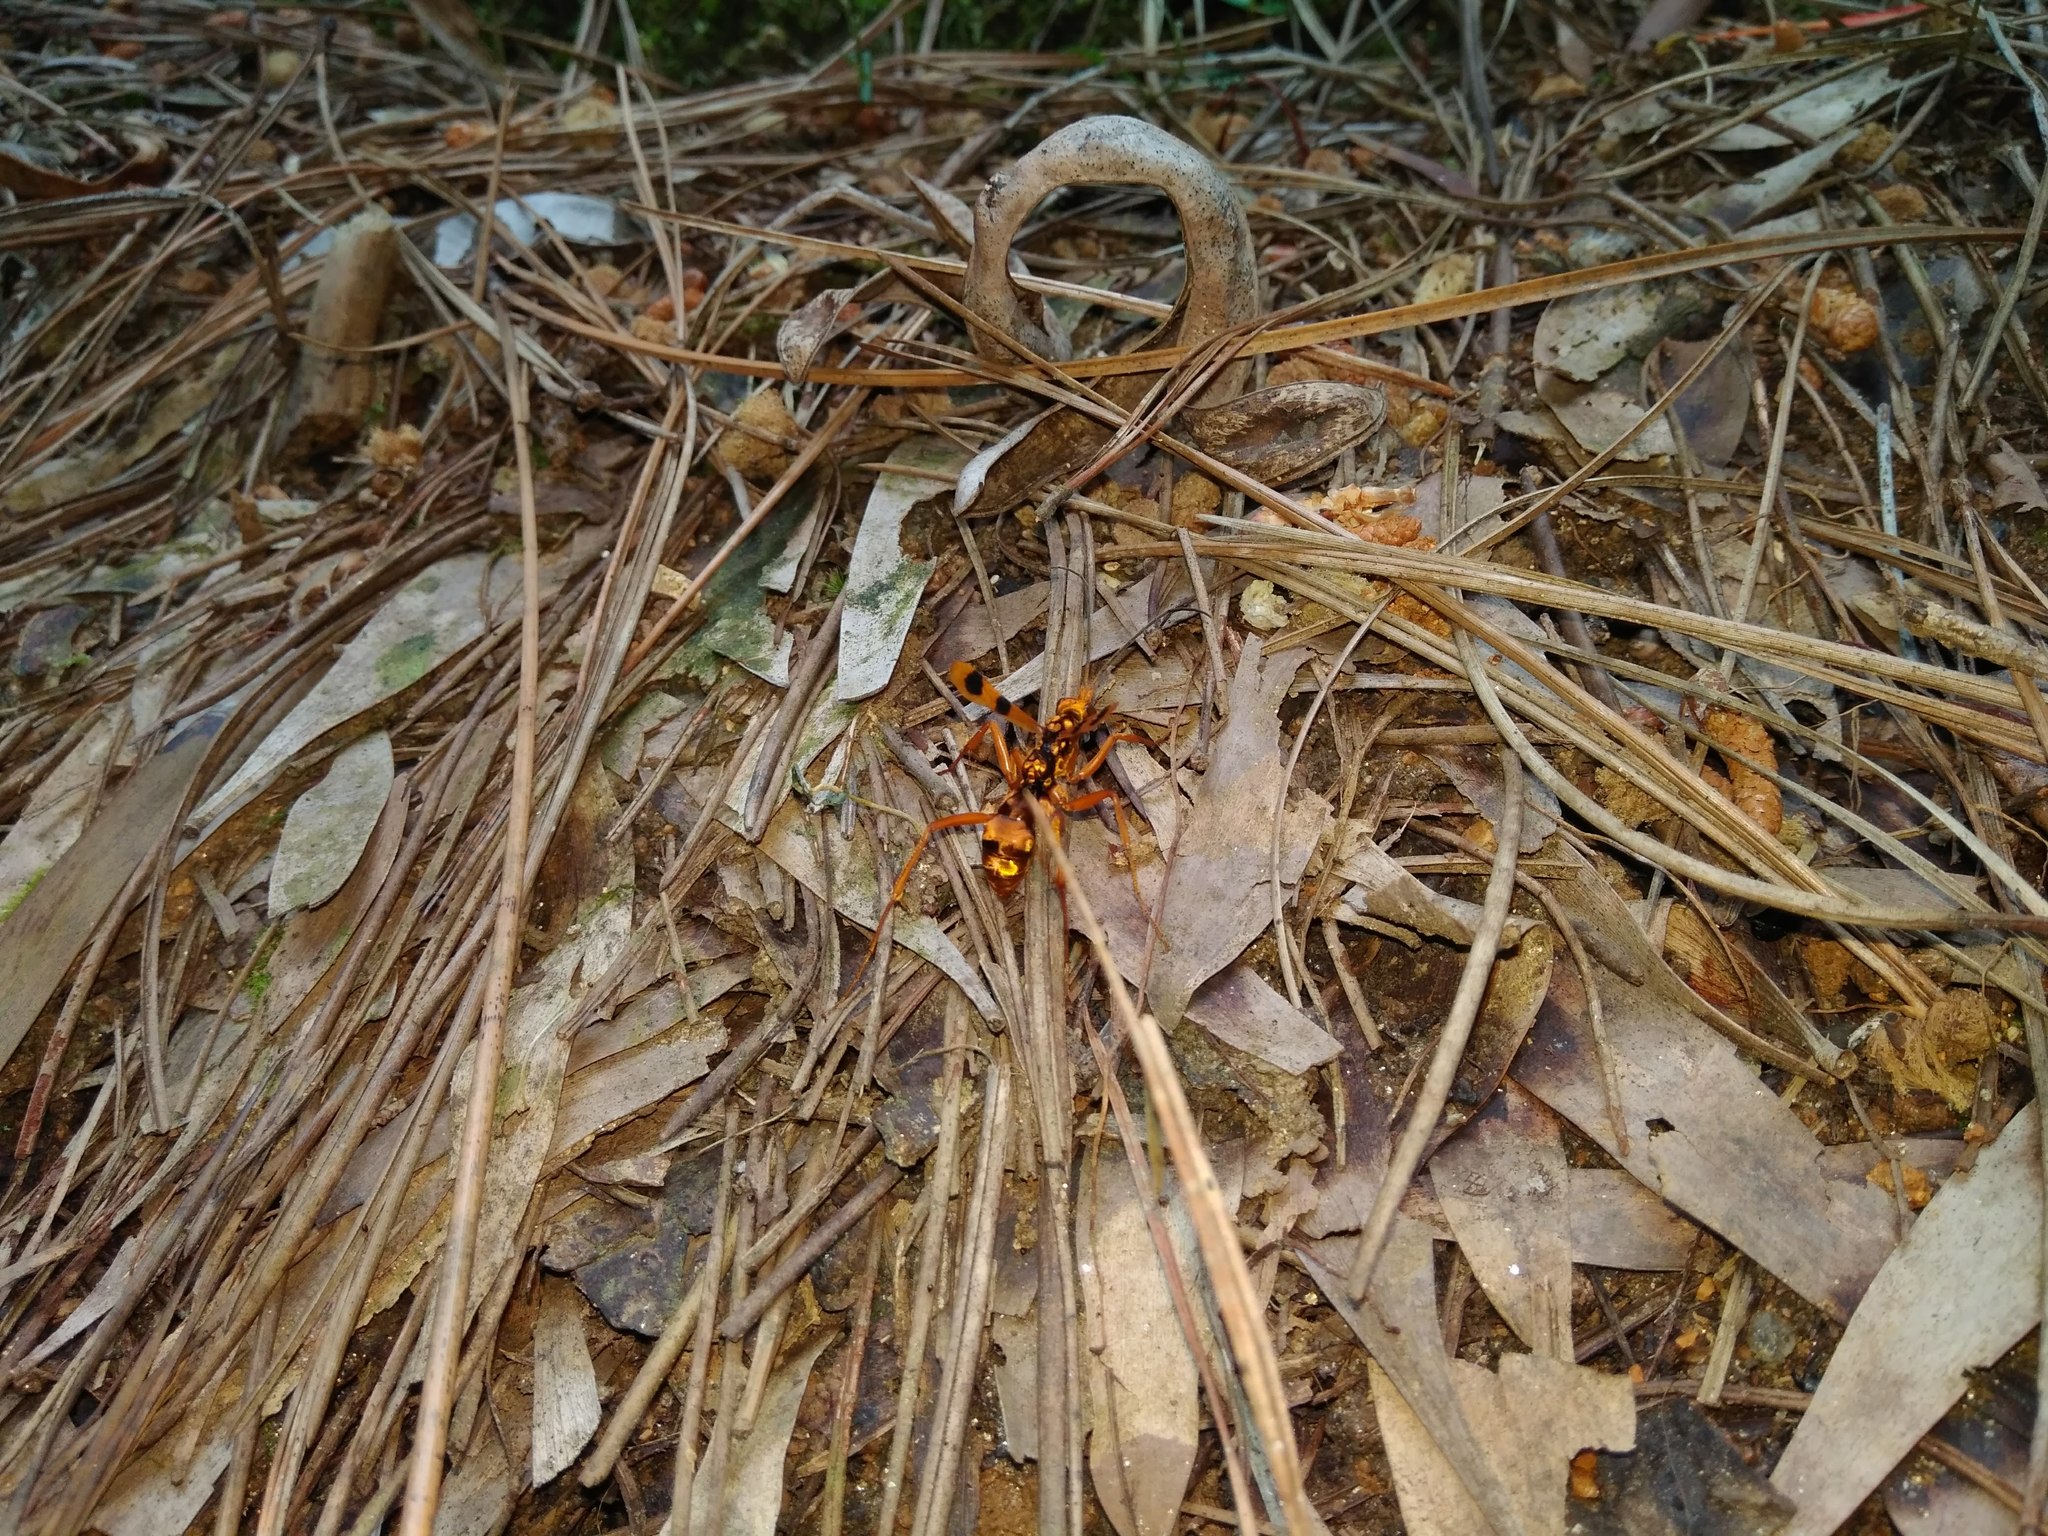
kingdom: Animalia
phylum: Arthropoda
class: Insecta
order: Hymenoptera
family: Pompilidae
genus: Sphictostethus
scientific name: Sphictostethus gravesii
